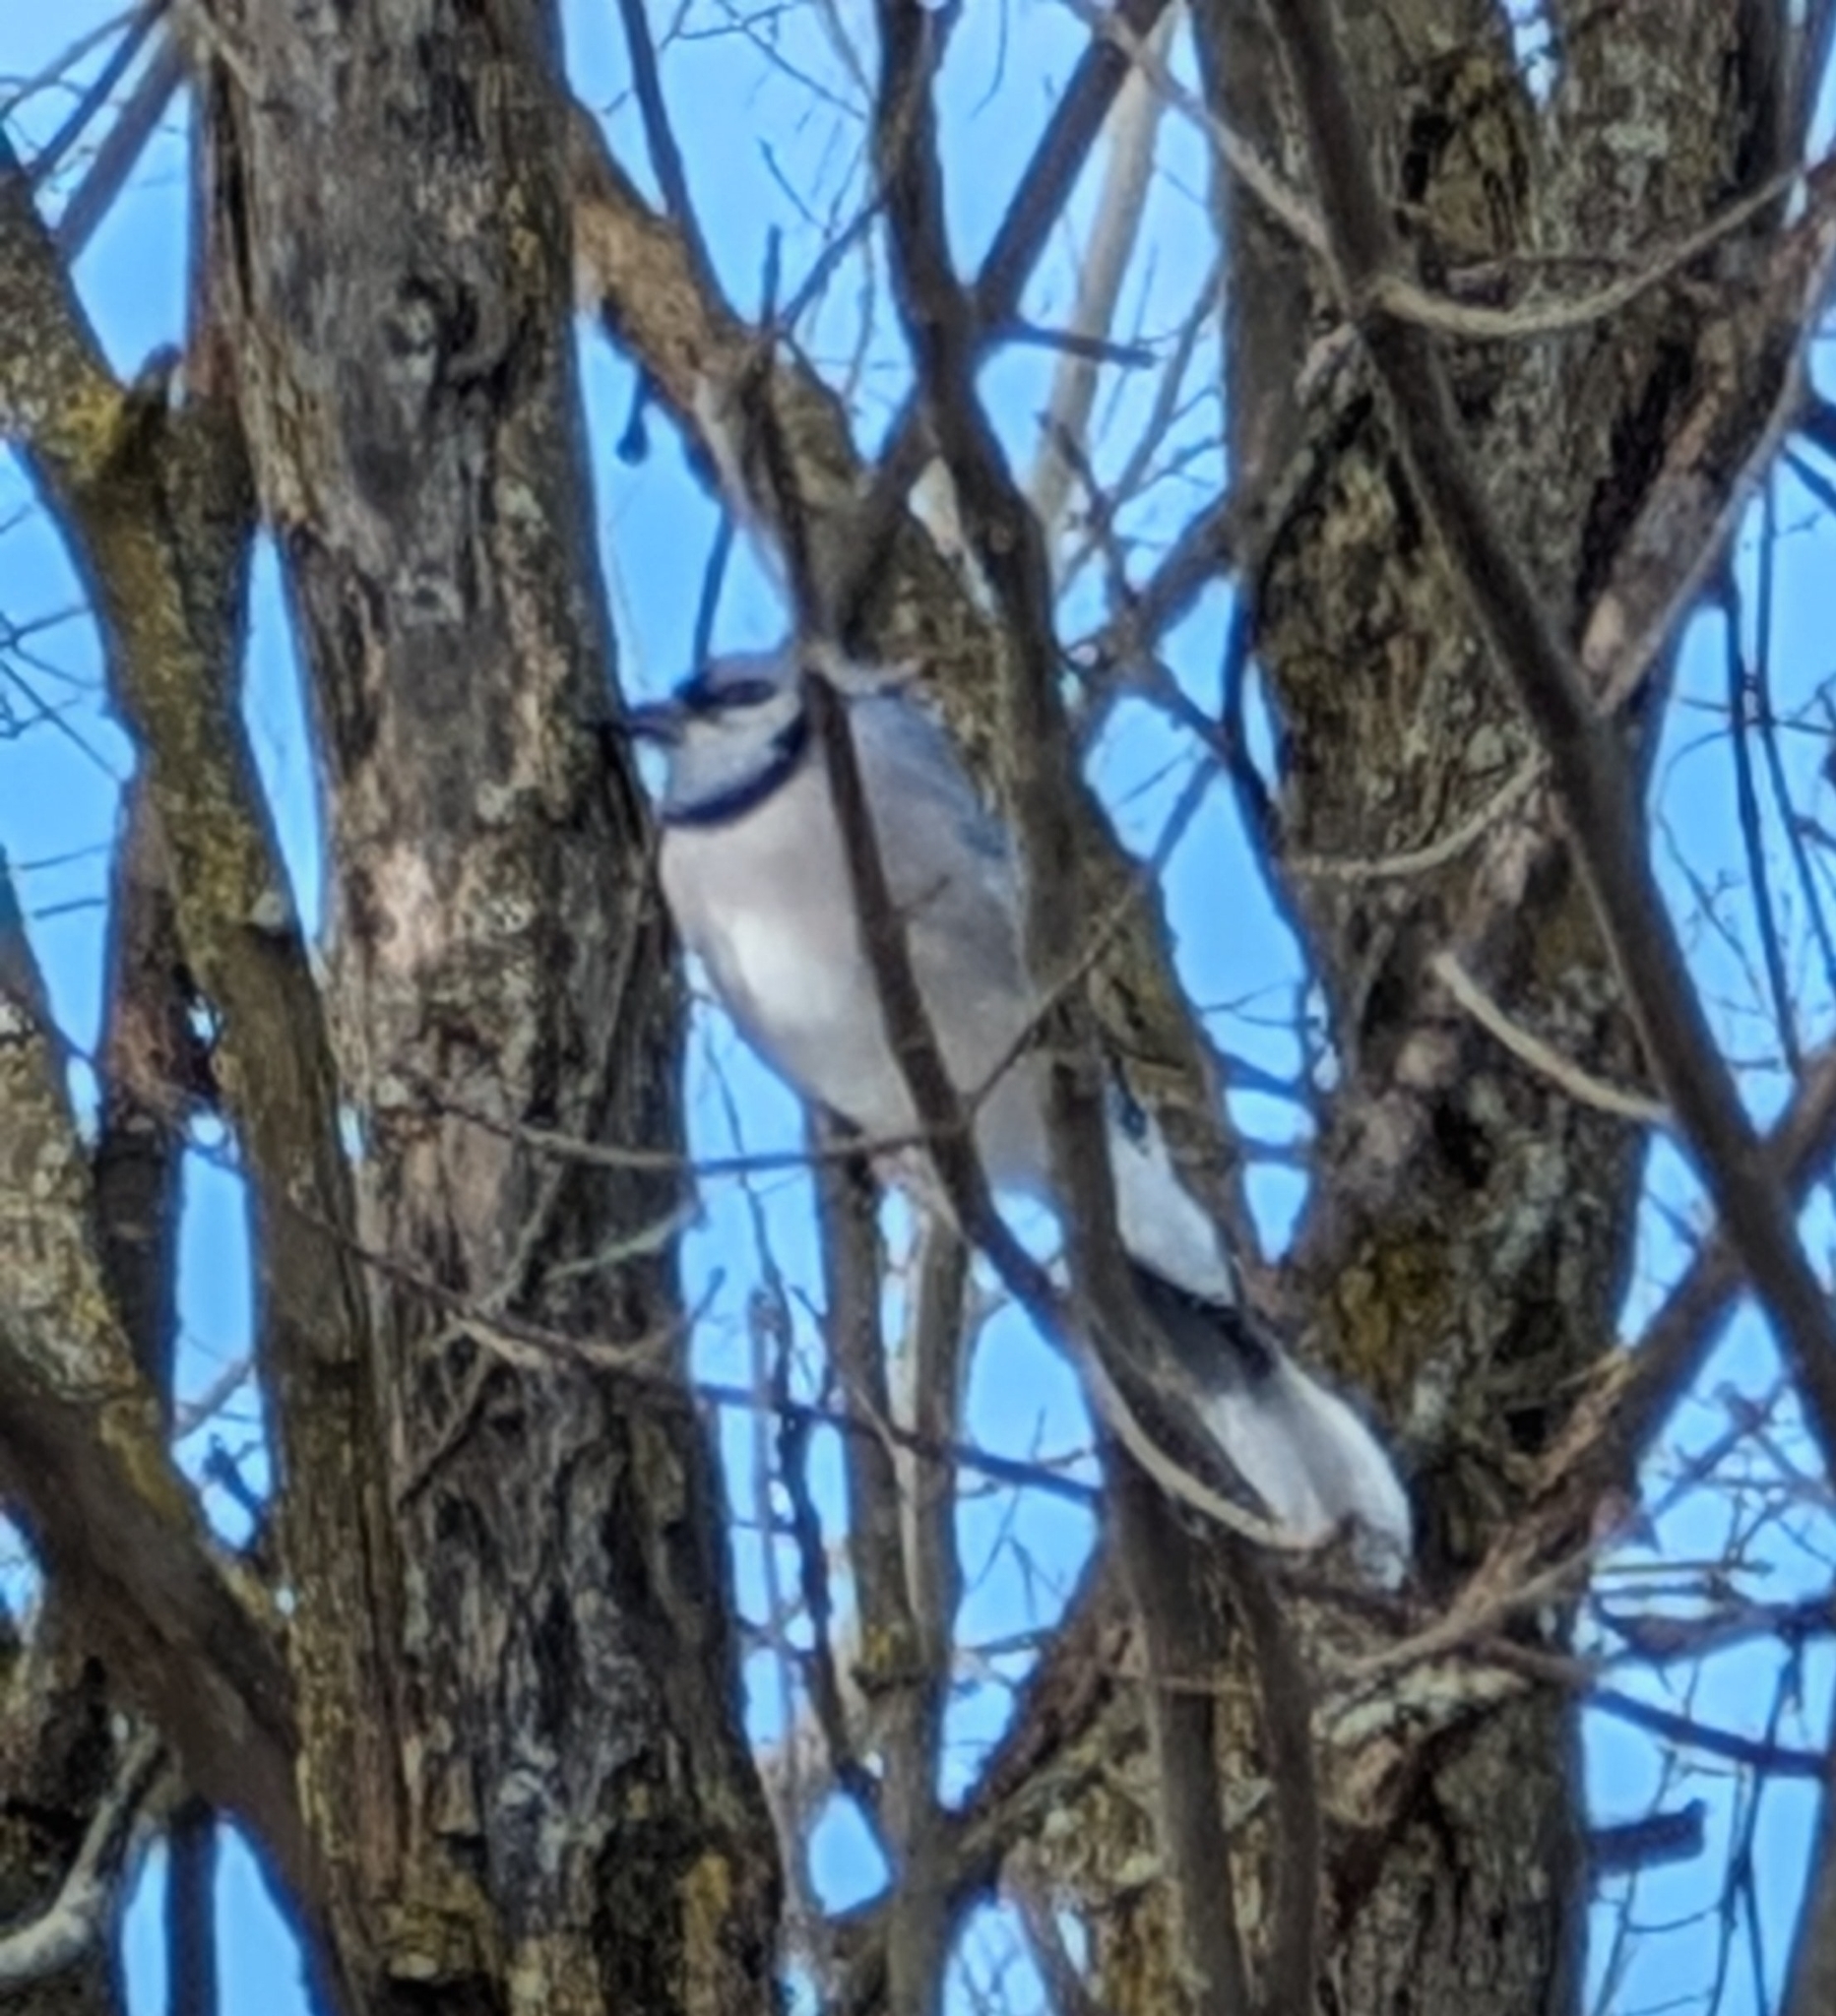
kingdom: Animalia
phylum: Chordata
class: Aves
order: Passeriformes
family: Corvidae
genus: Cyanocitta
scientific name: Cyanocitta cristata
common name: Blue jay
